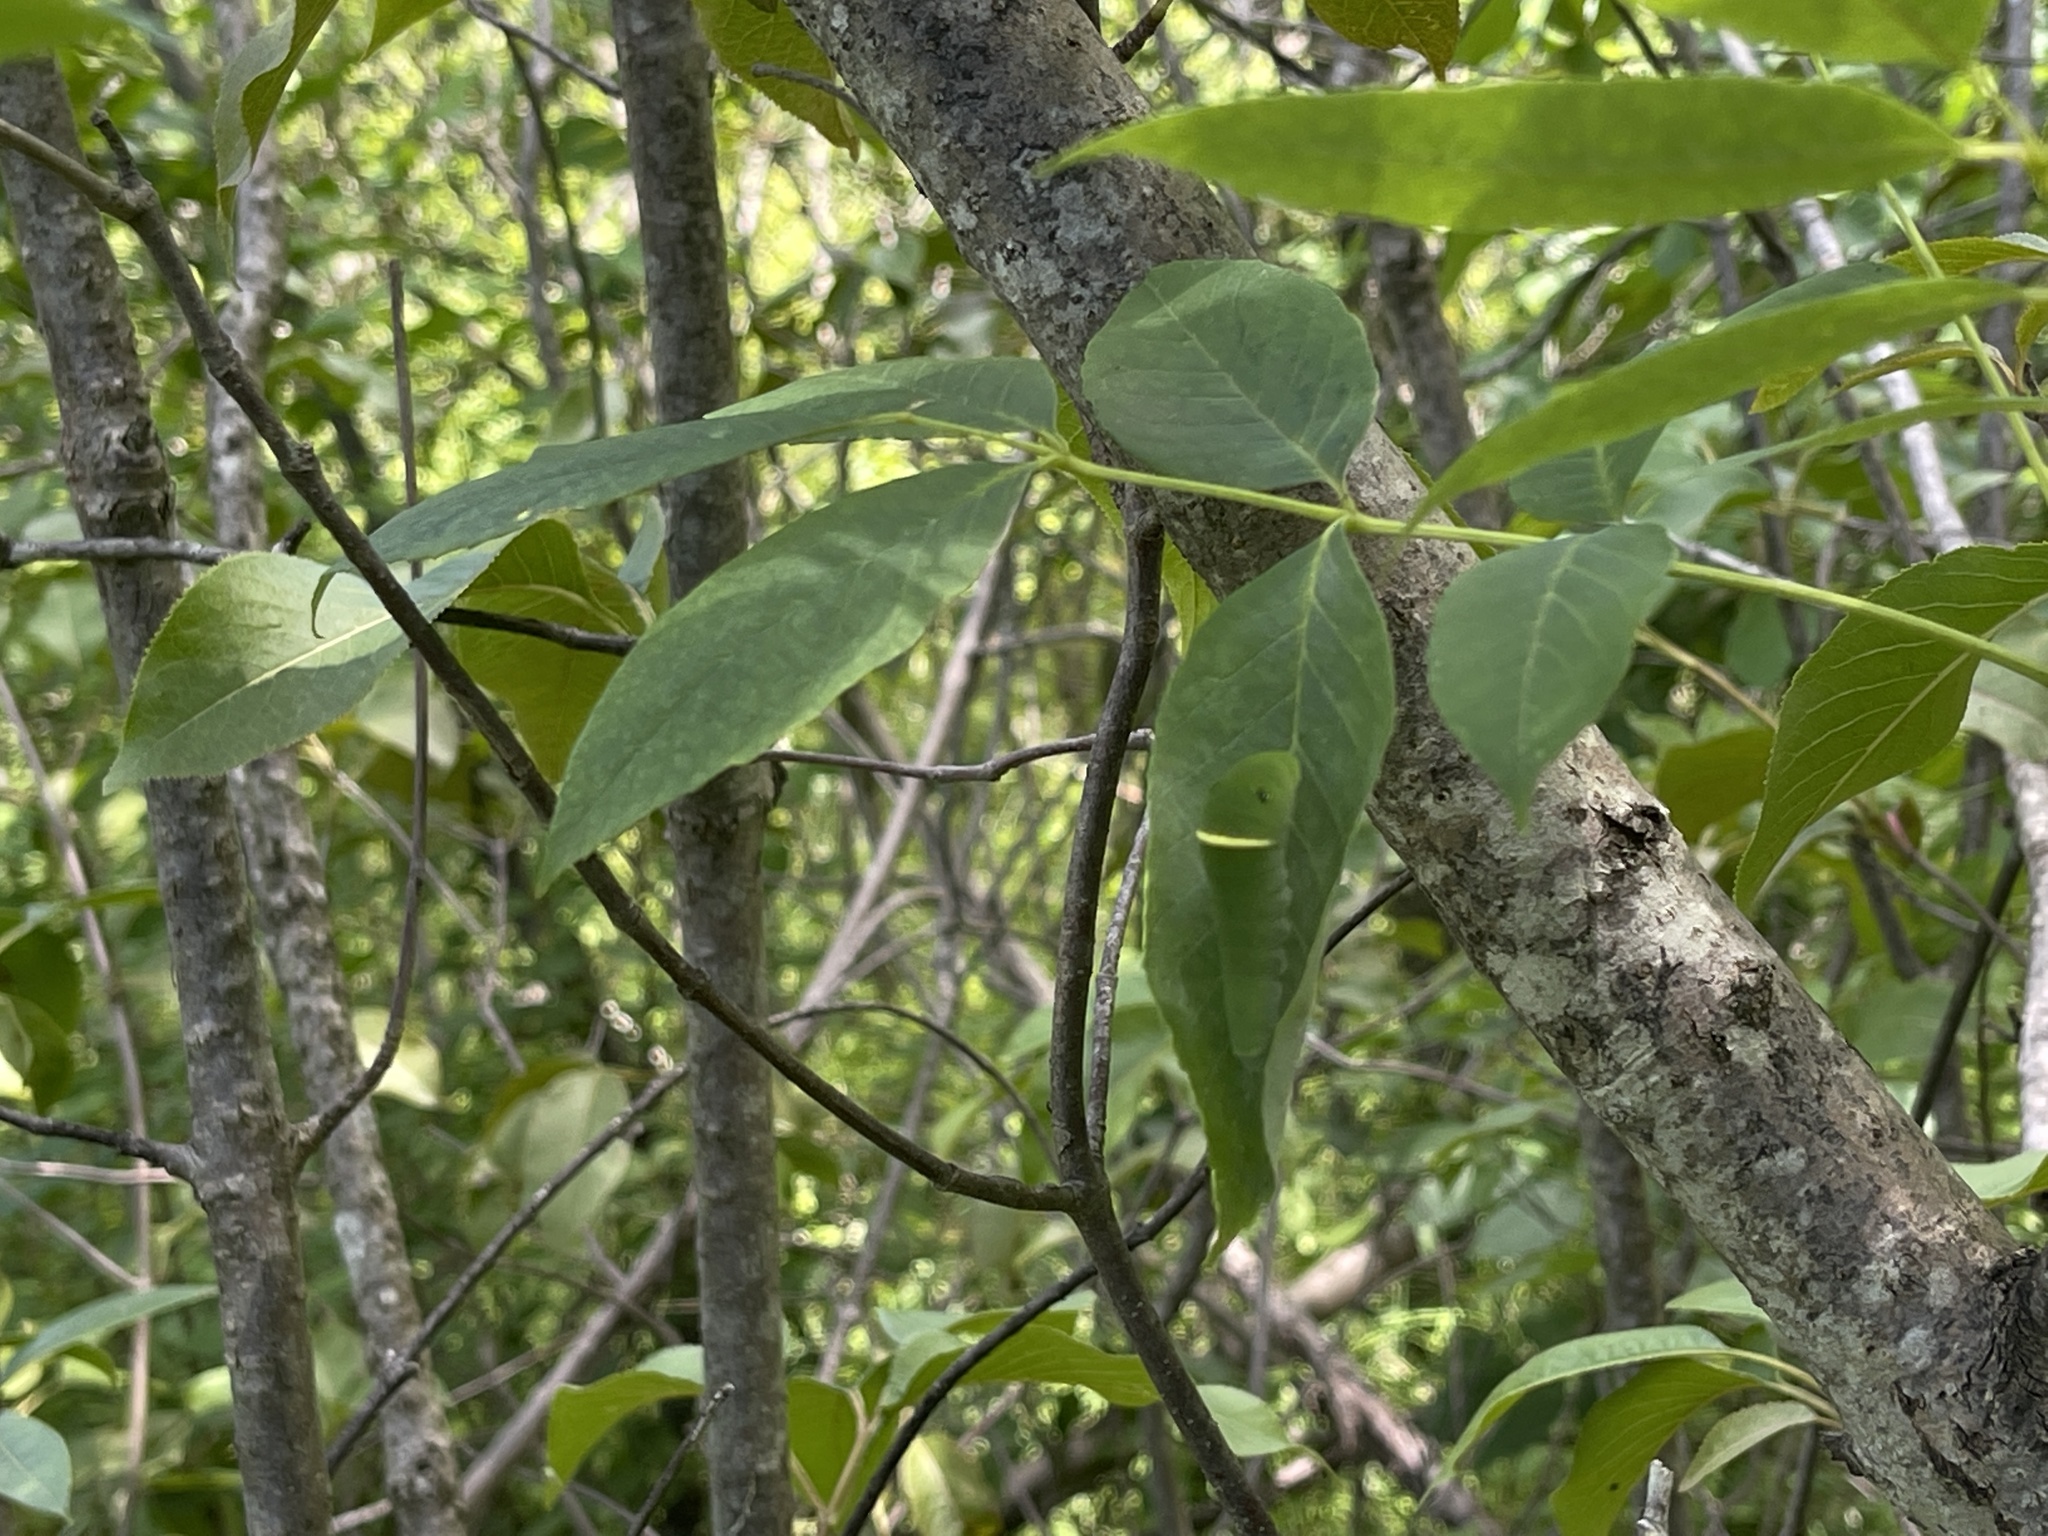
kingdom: Animalia
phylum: Arthropoda
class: Insecta
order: Lepidoptera
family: Papilionidae
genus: Papilio
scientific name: Papilio glaucus
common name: Tiger swallowtail
